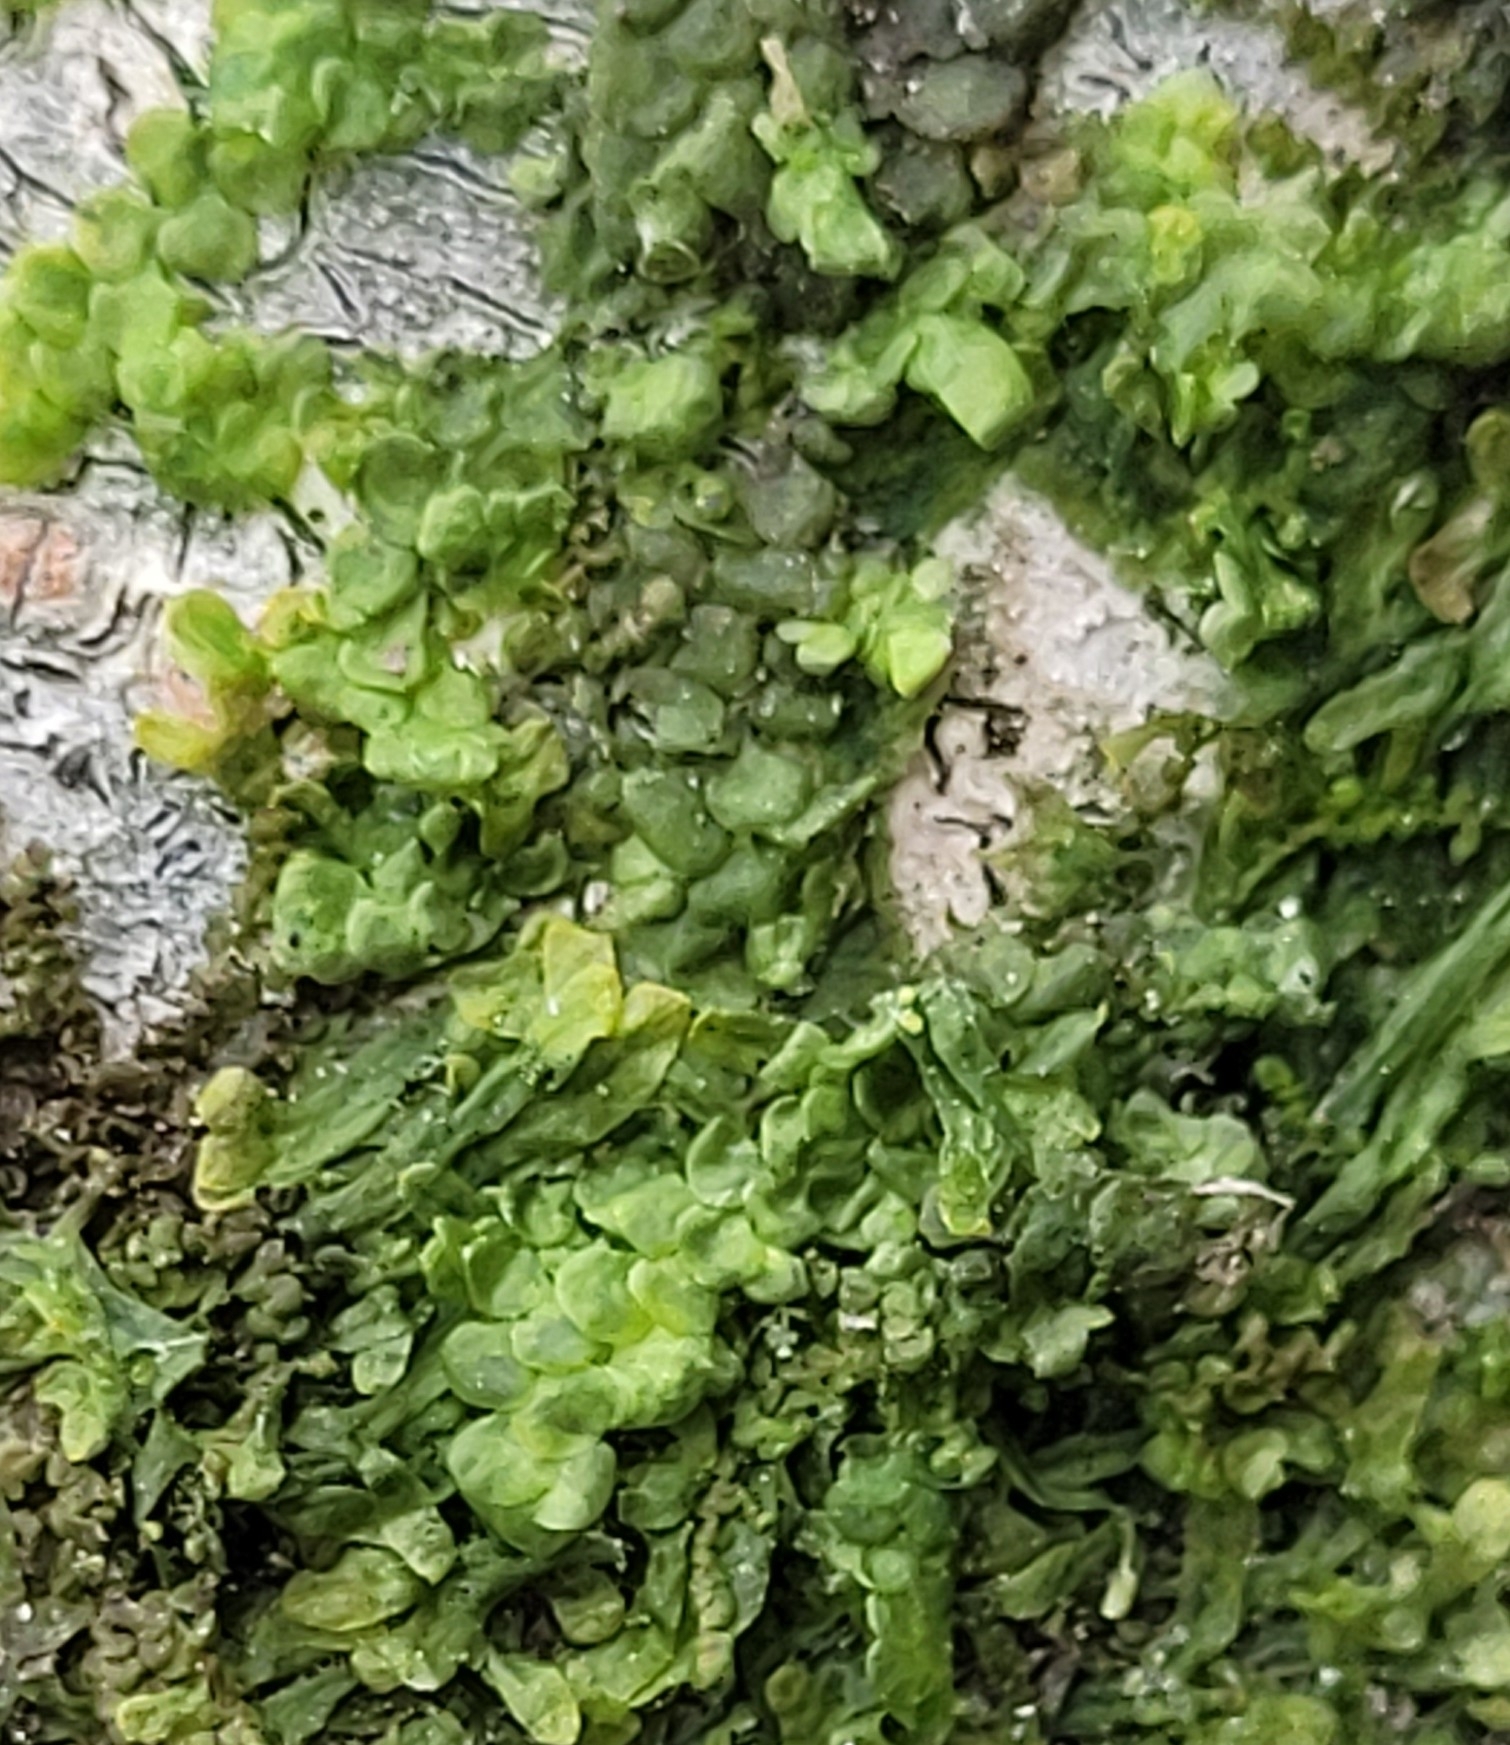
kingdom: Plantae
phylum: Marchantiophyta
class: Jungermanniopsida
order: Porellales
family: Radulaceae
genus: Radula
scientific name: Radula complanata
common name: Flat-leaved scalewort
